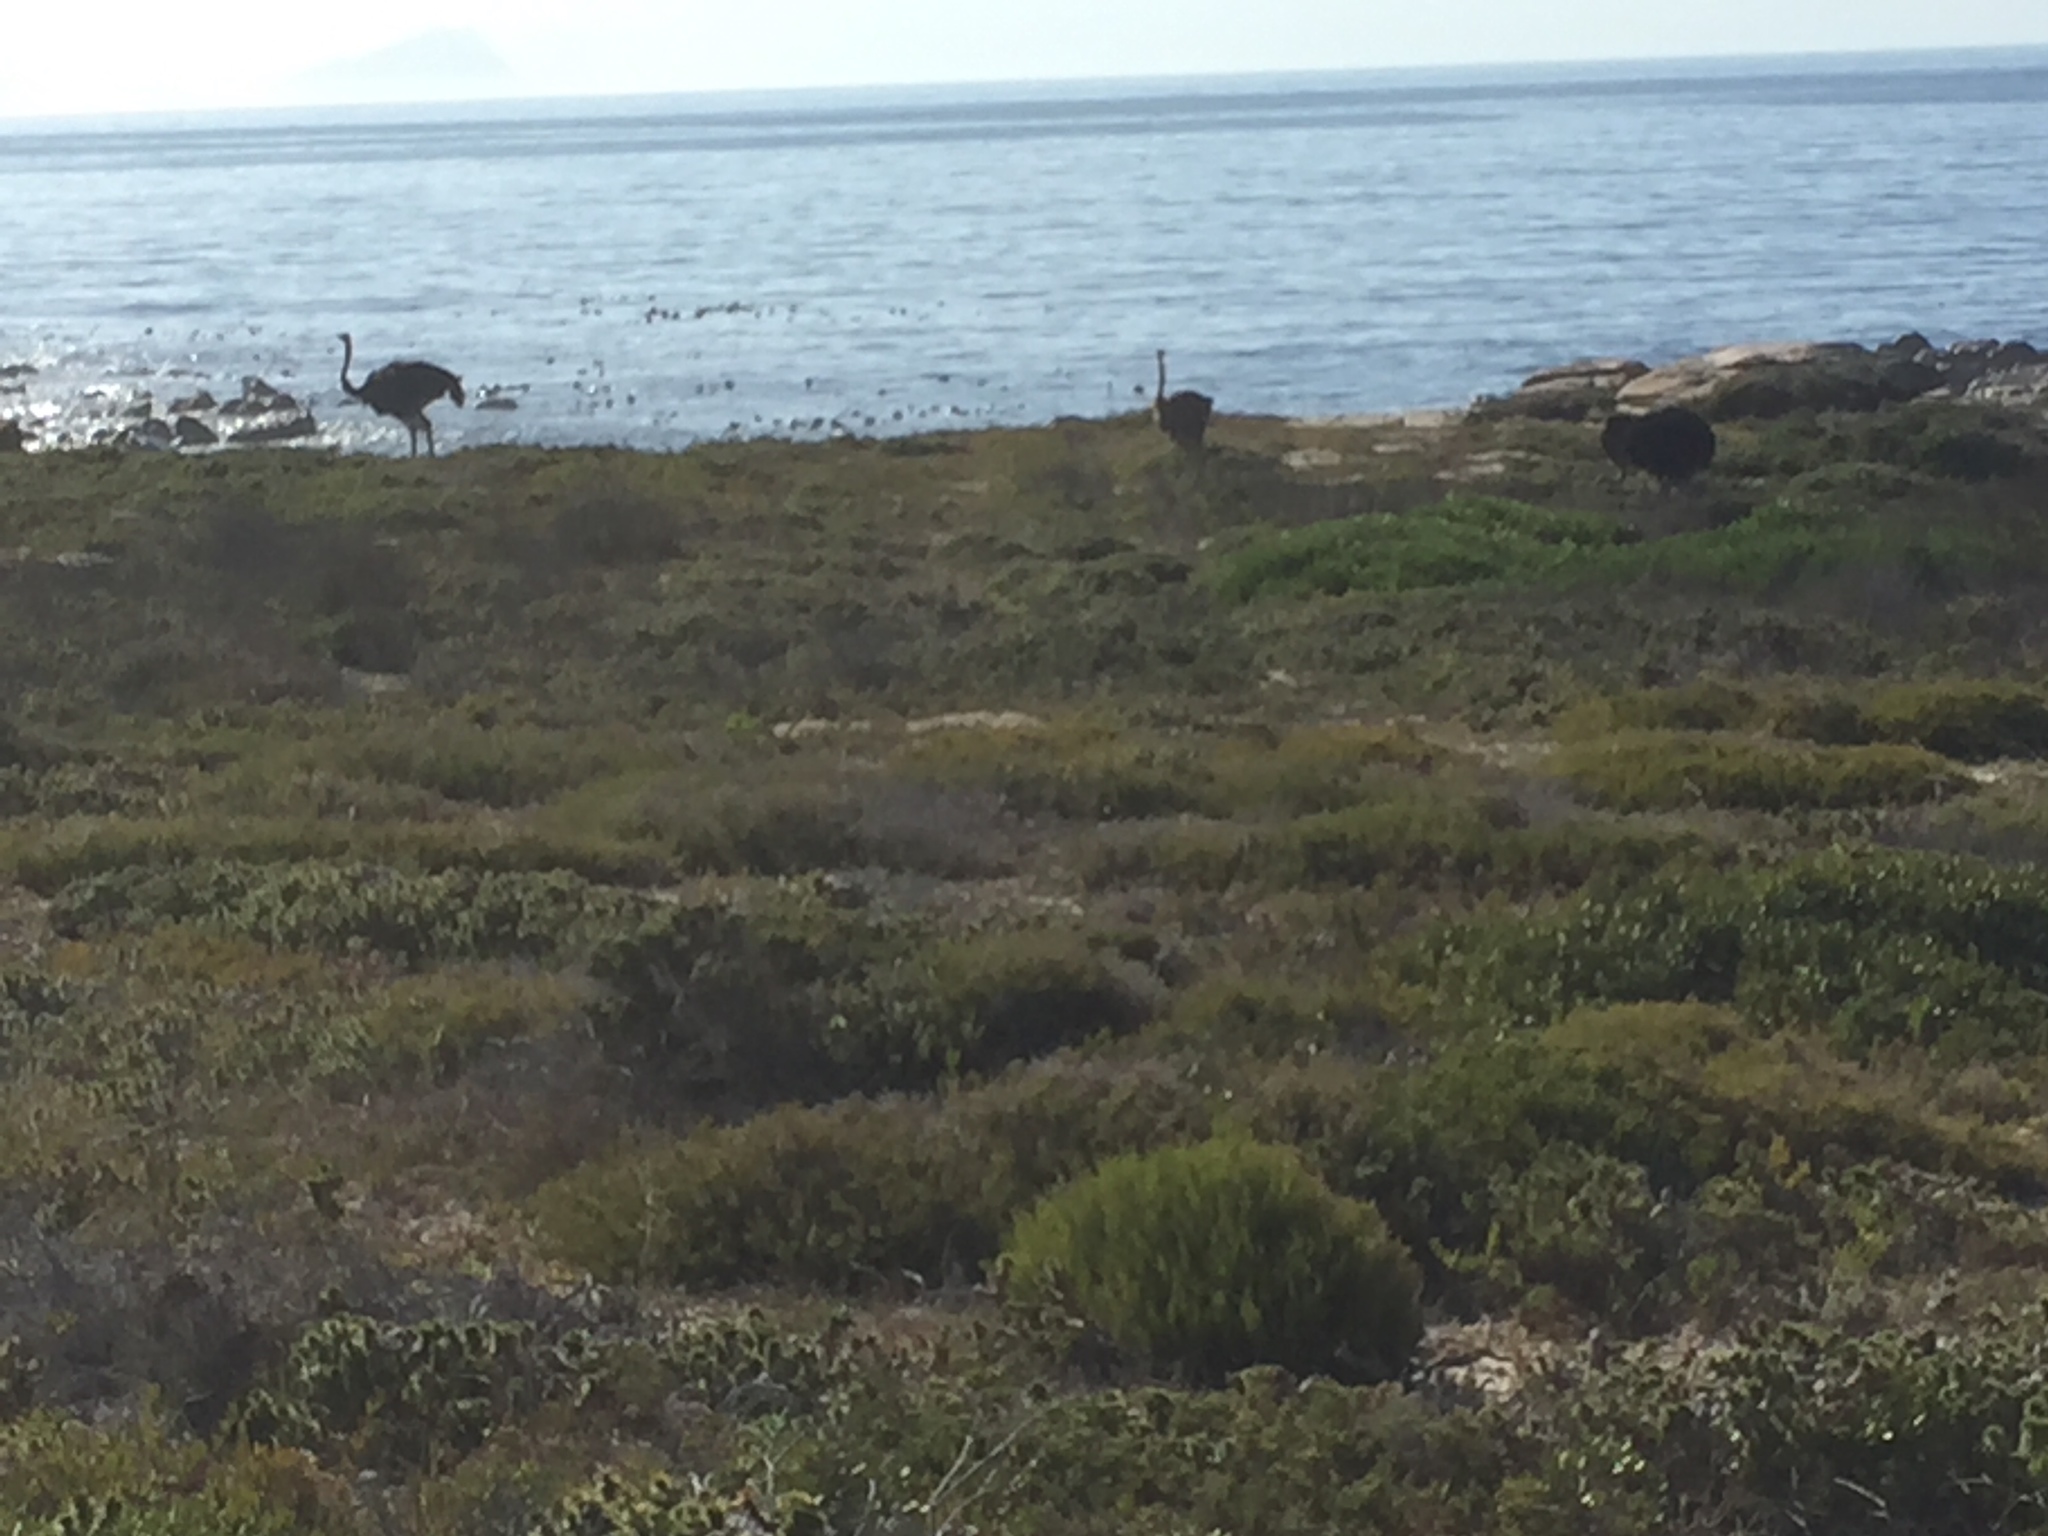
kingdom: Animalia
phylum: Chordata
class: Aves
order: Struthioniformes
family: Struthionidae
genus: Struthio
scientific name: Struthio camelus
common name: Common ostrich
